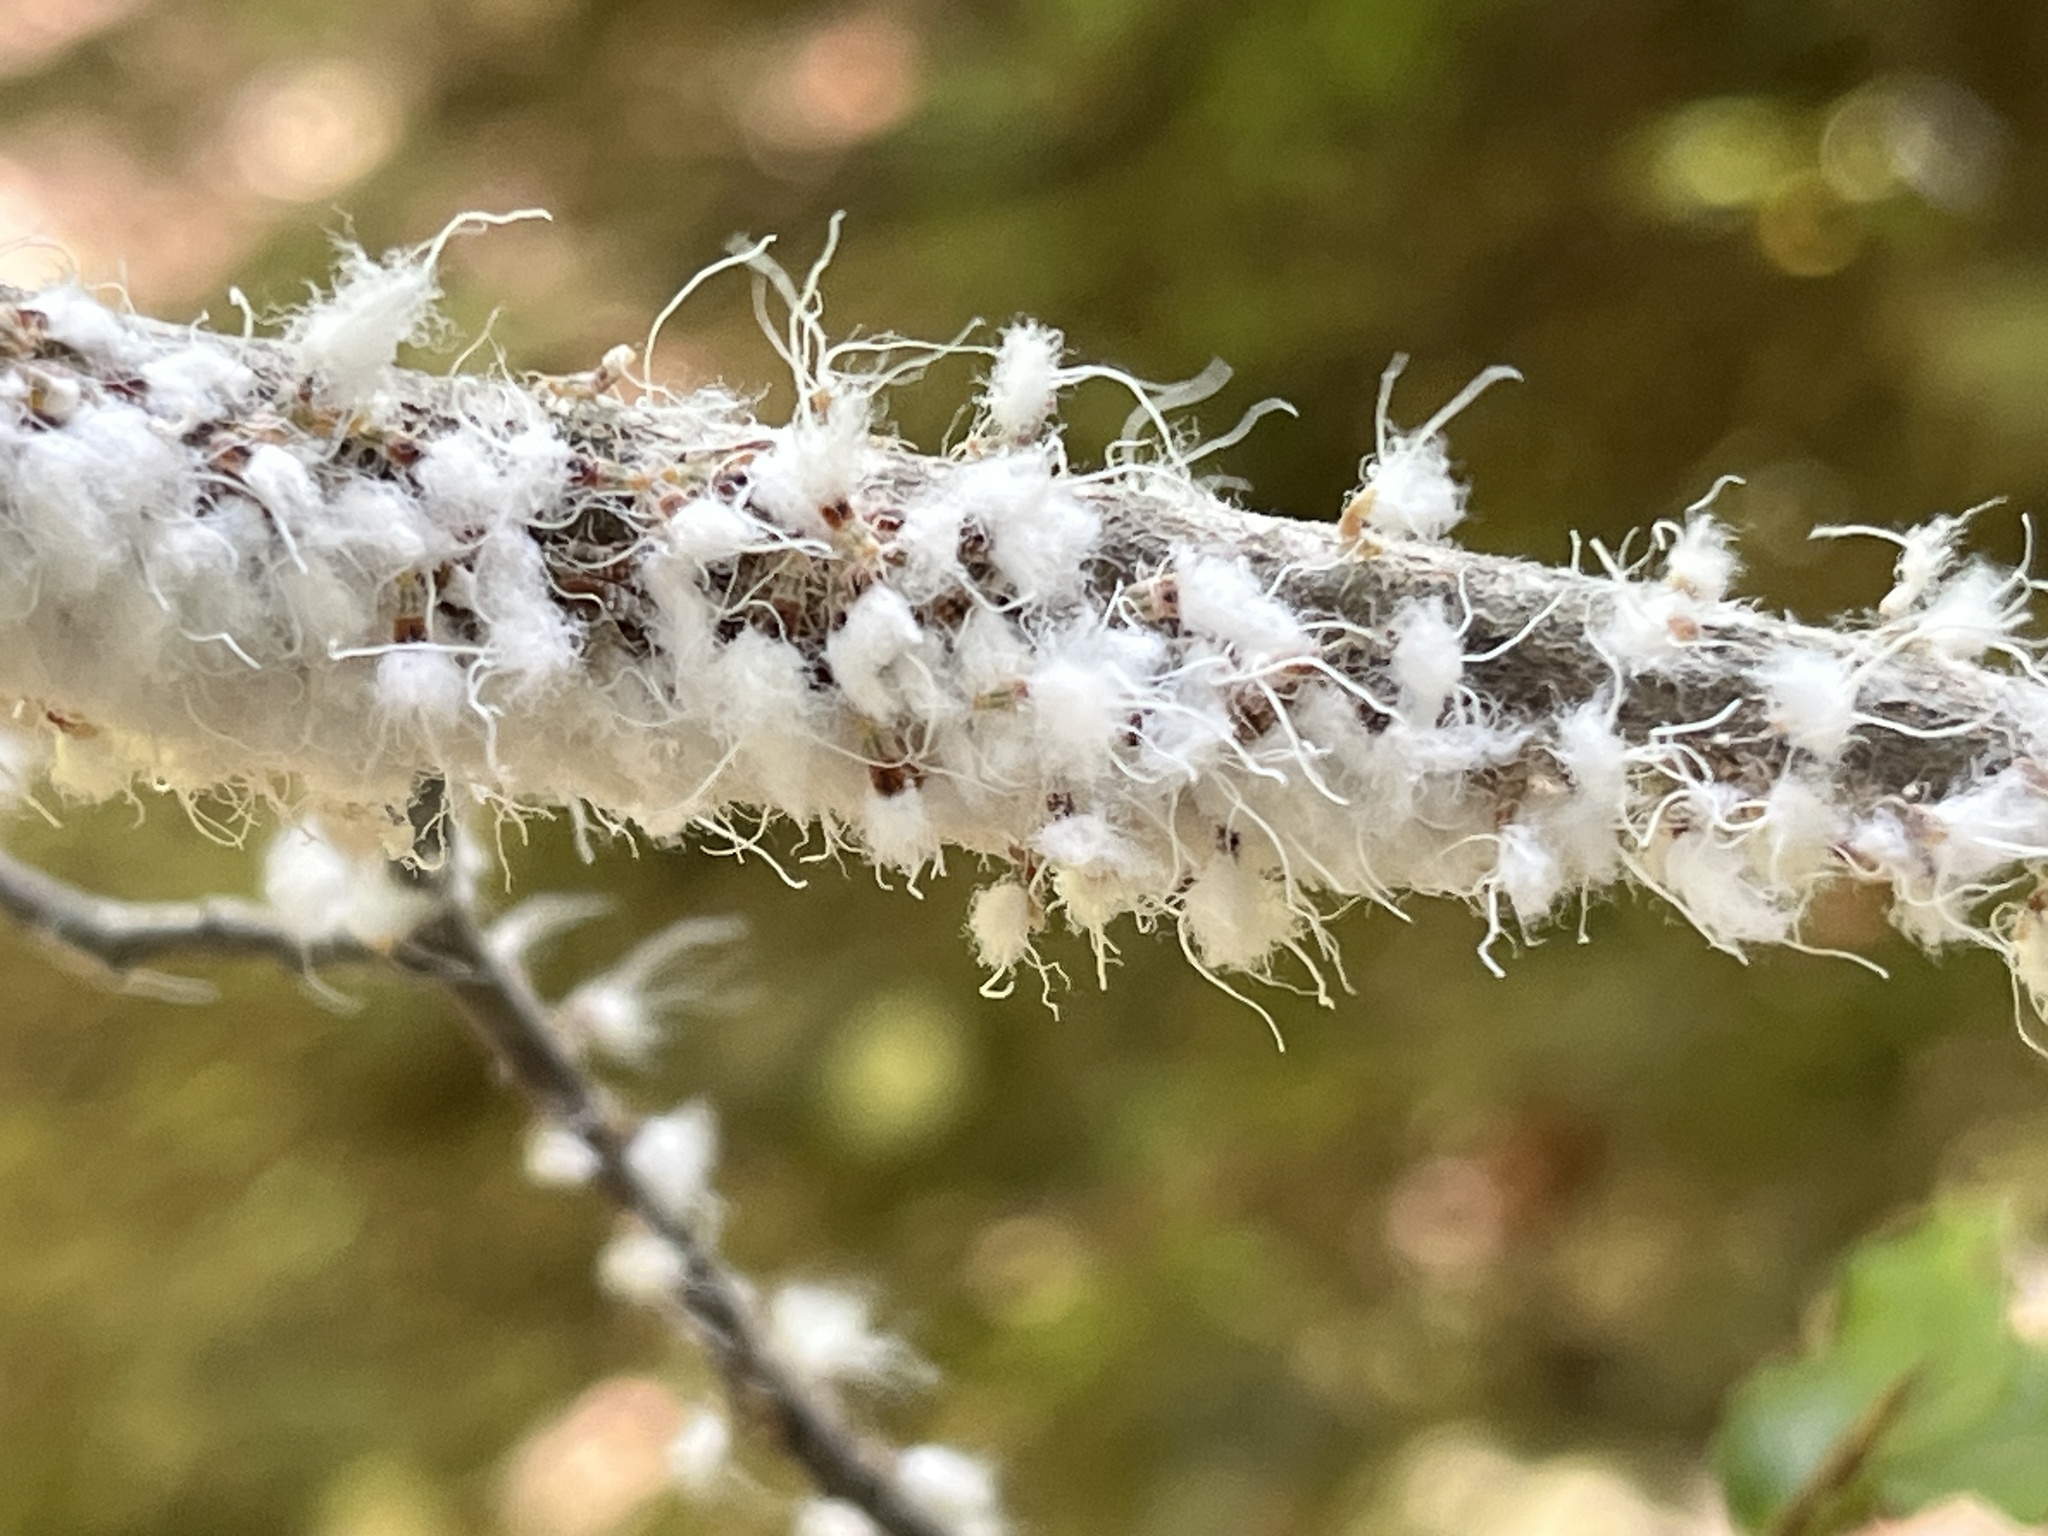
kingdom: Animalia
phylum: Arthropoda
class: Insecta
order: Hemiptera
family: Aphididae
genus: Grylloprociphilus
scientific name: Grylloprociphilus imbricator
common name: Beech blight aphid
